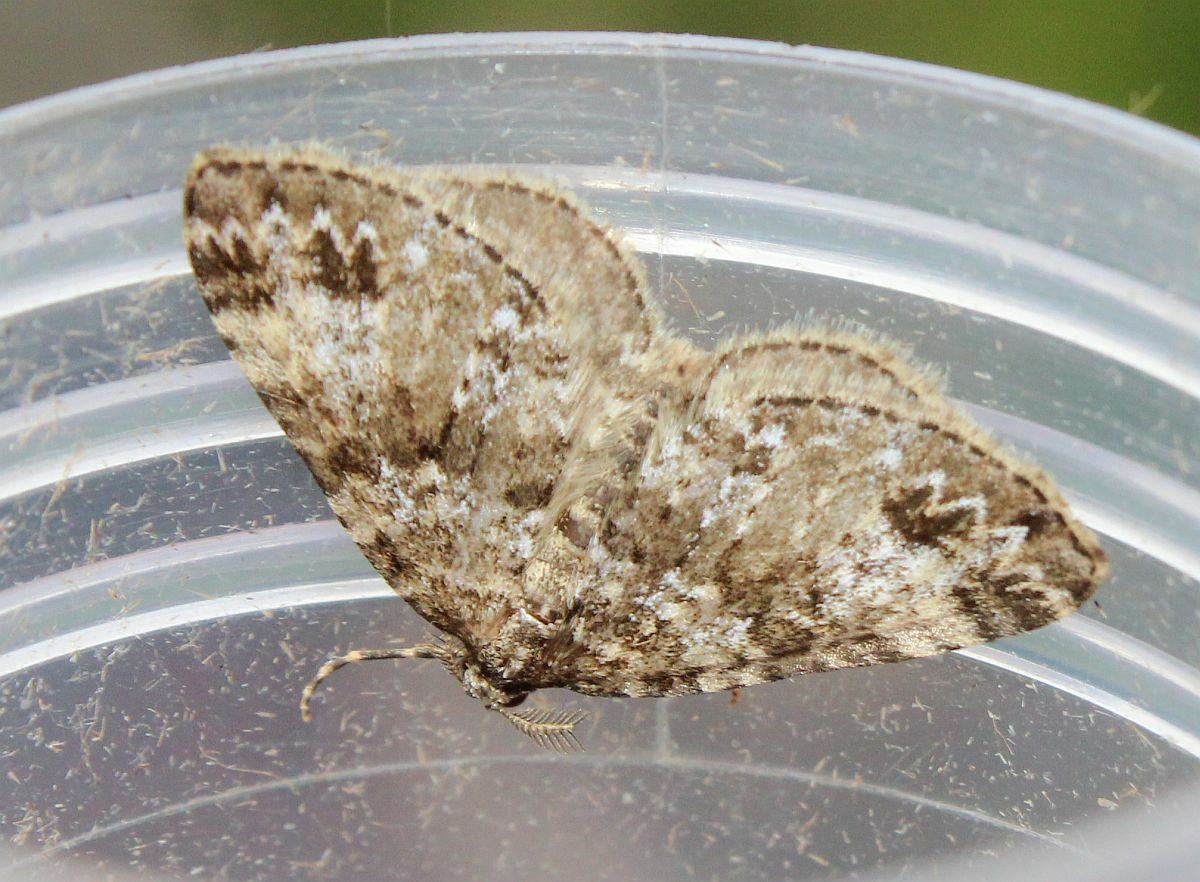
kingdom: Animalia
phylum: Arthropoda
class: Insecta
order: Lepidoptera
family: Geometridae
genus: Perizoma
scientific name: Perizoma didymata
